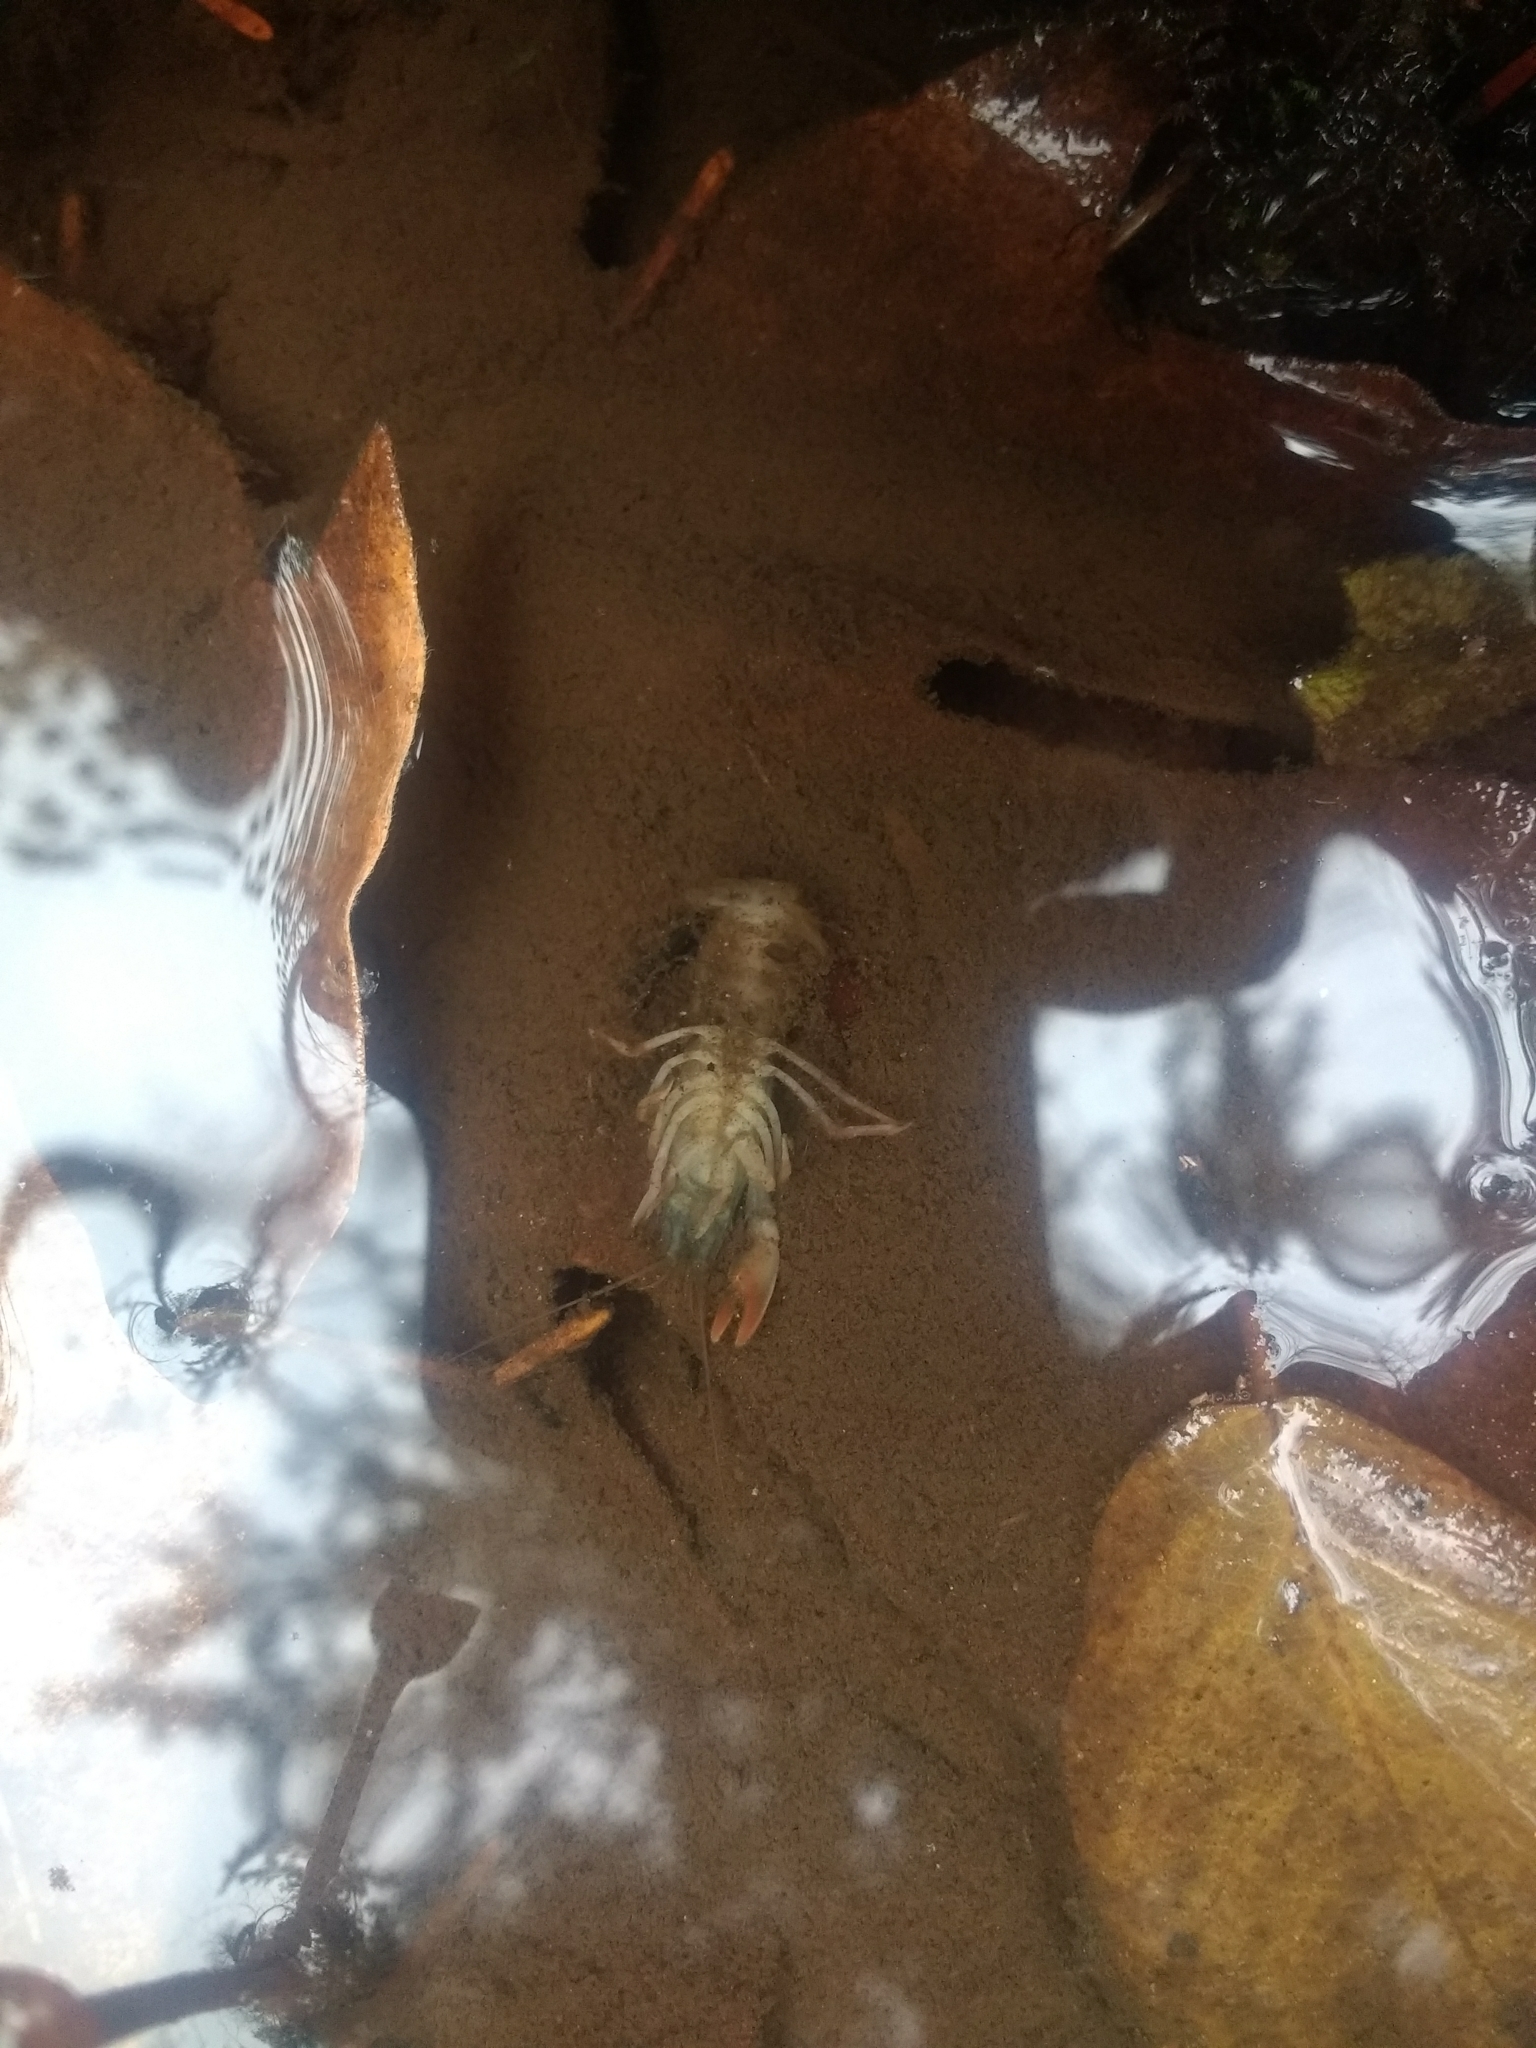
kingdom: Animalia
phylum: Arthropoda
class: Malacostraca
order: Decapoda
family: Astacidae
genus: Pacifastacus
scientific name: Pacifastacus leniusculus
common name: Signal crayfish
